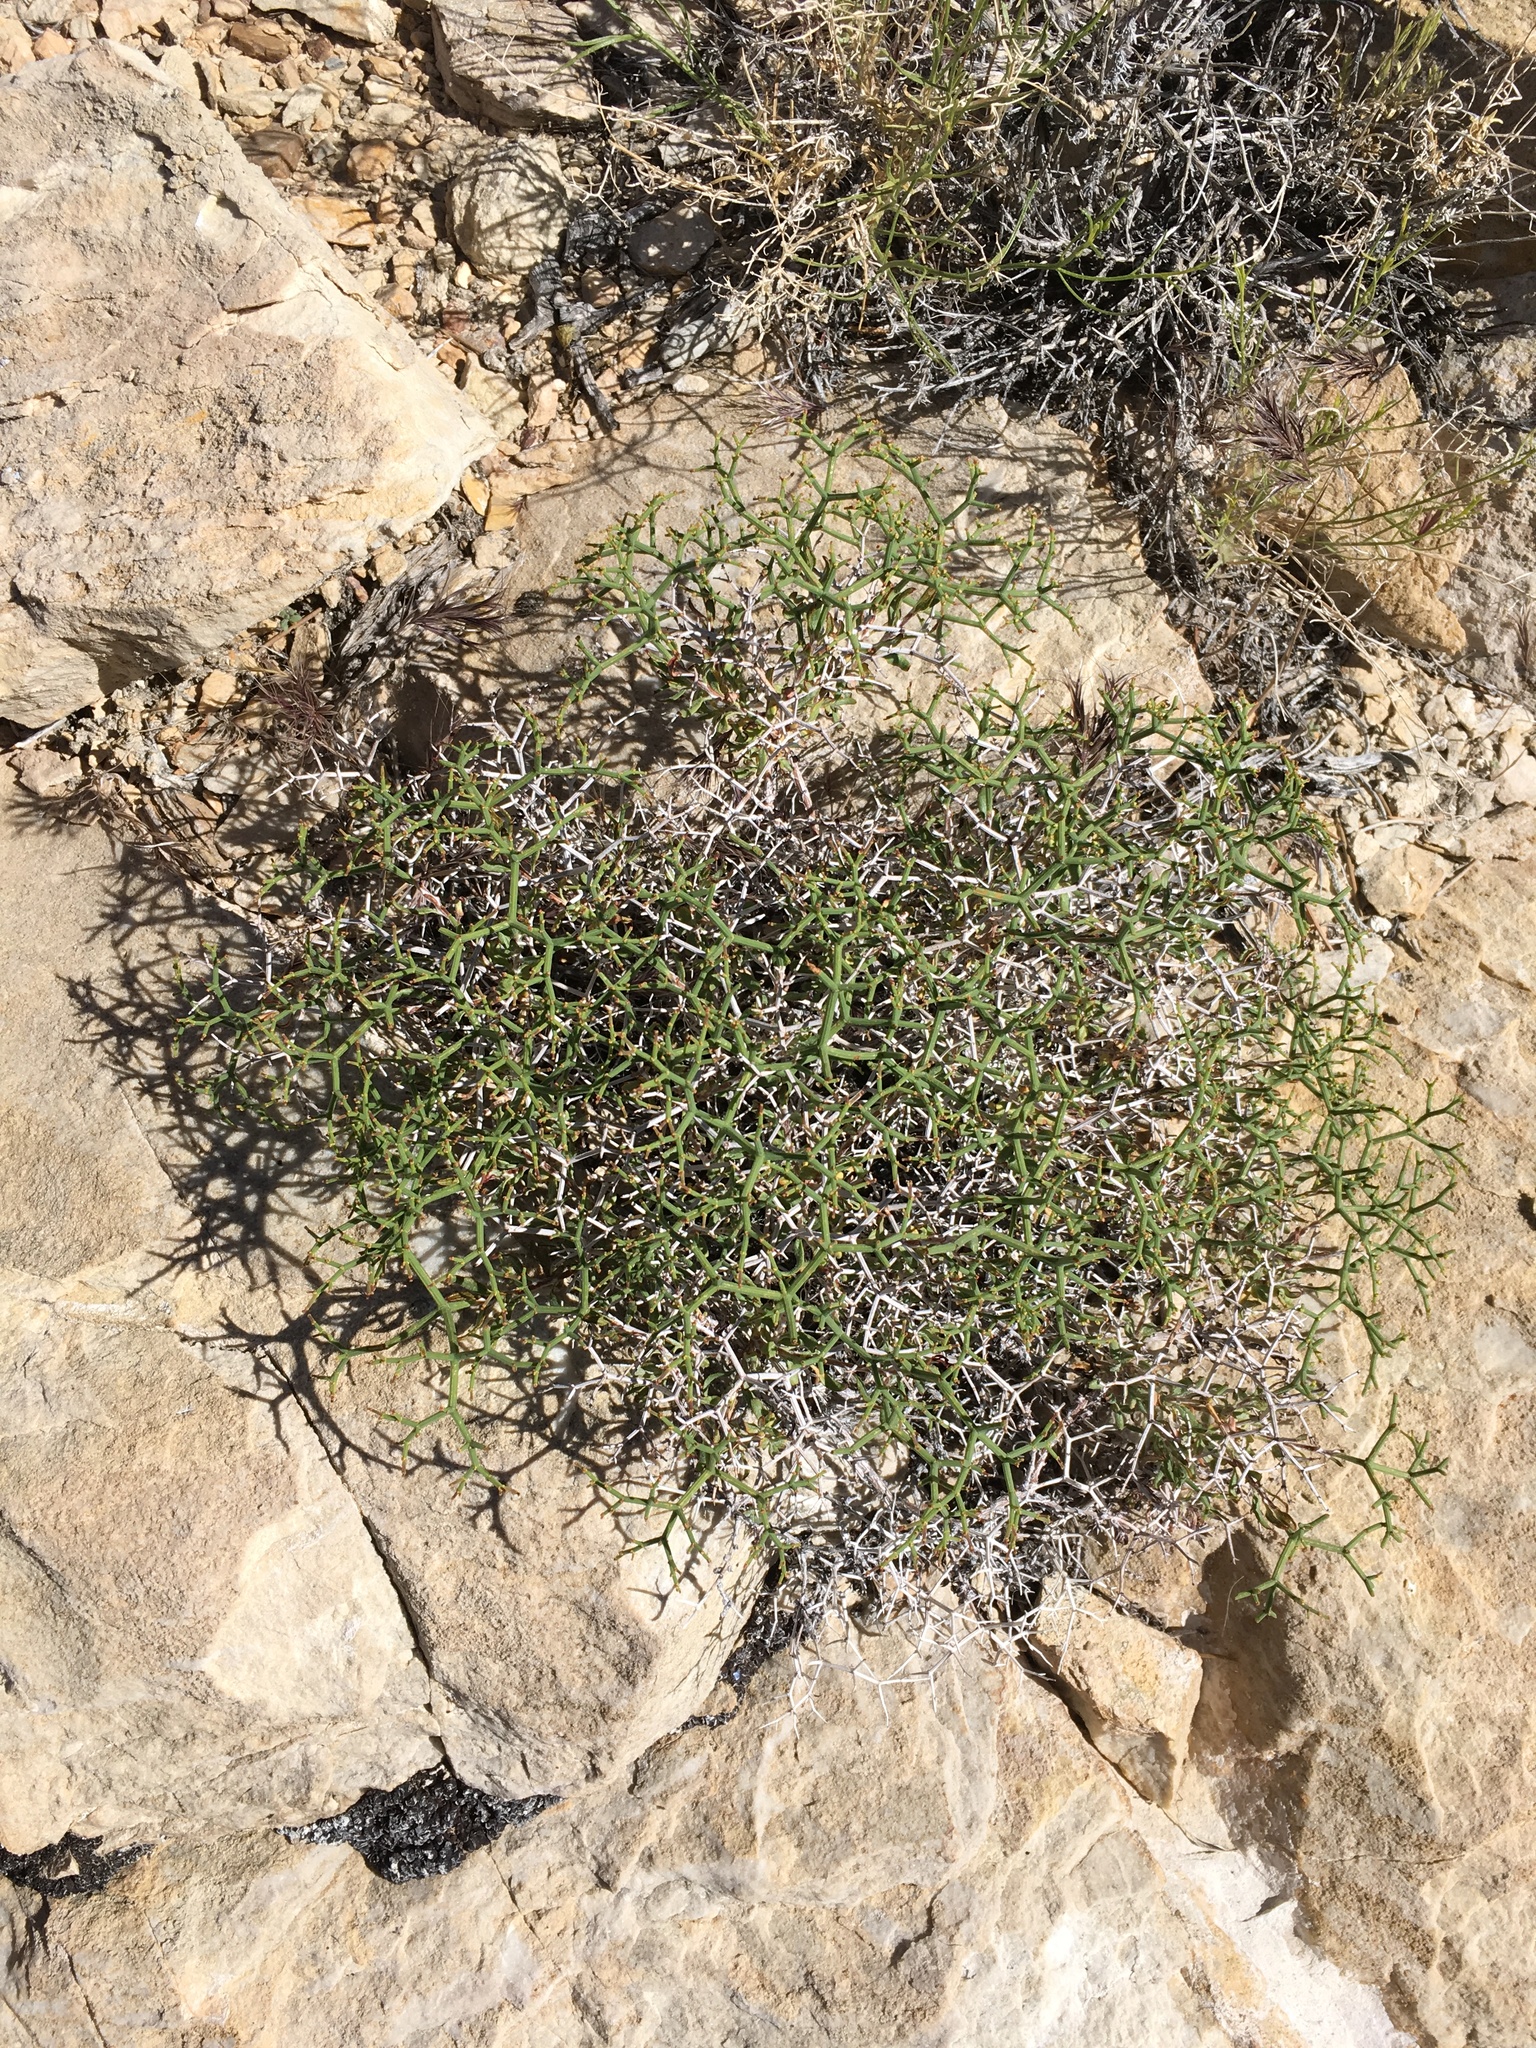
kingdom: Plantae
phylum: Tracheophyta
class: Magnoliopsida
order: Caryophyllales
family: Polygonaceae
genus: Eriogonum
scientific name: Eriogonum heermannii
